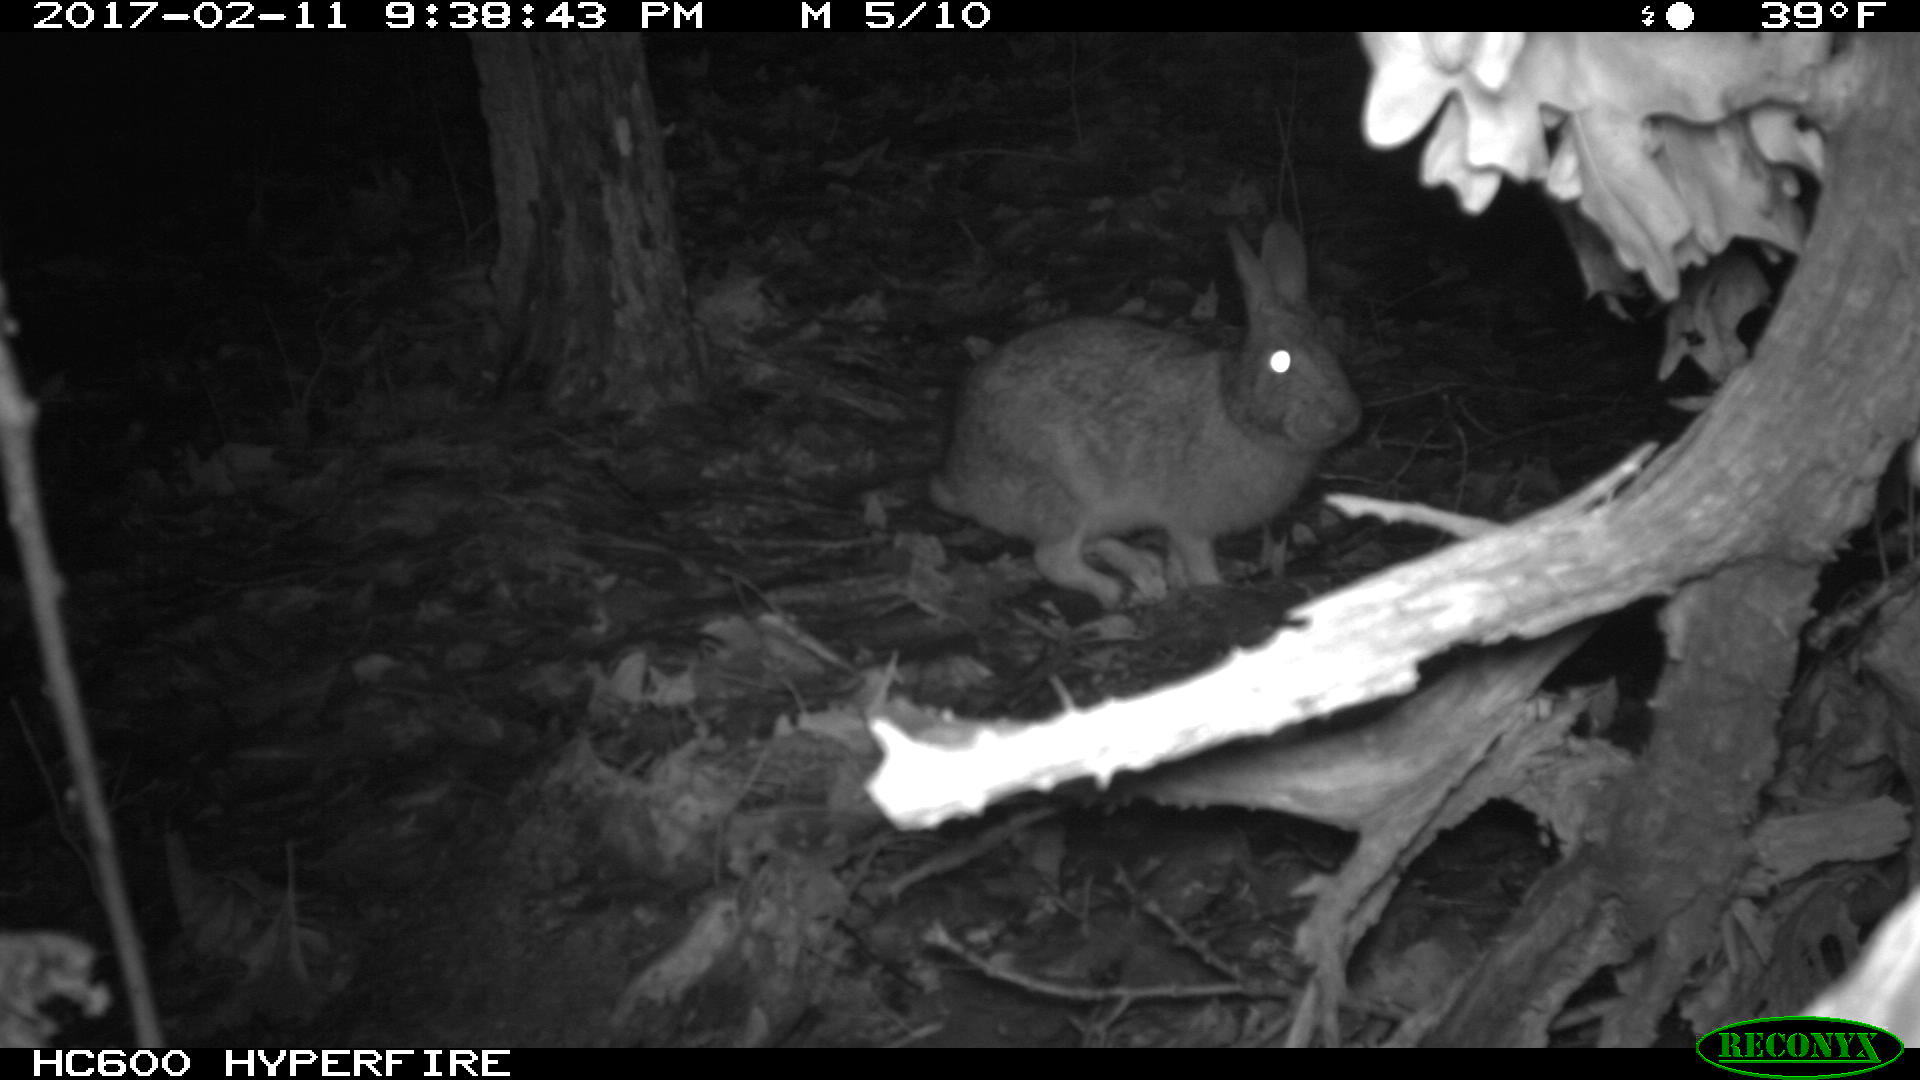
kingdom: Animalia
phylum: Chordata
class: Mammalia
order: Lagomorpha
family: Leporidae
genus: Sylvilagus
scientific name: Sylvilagus floridanus
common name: Eastern cottontail
